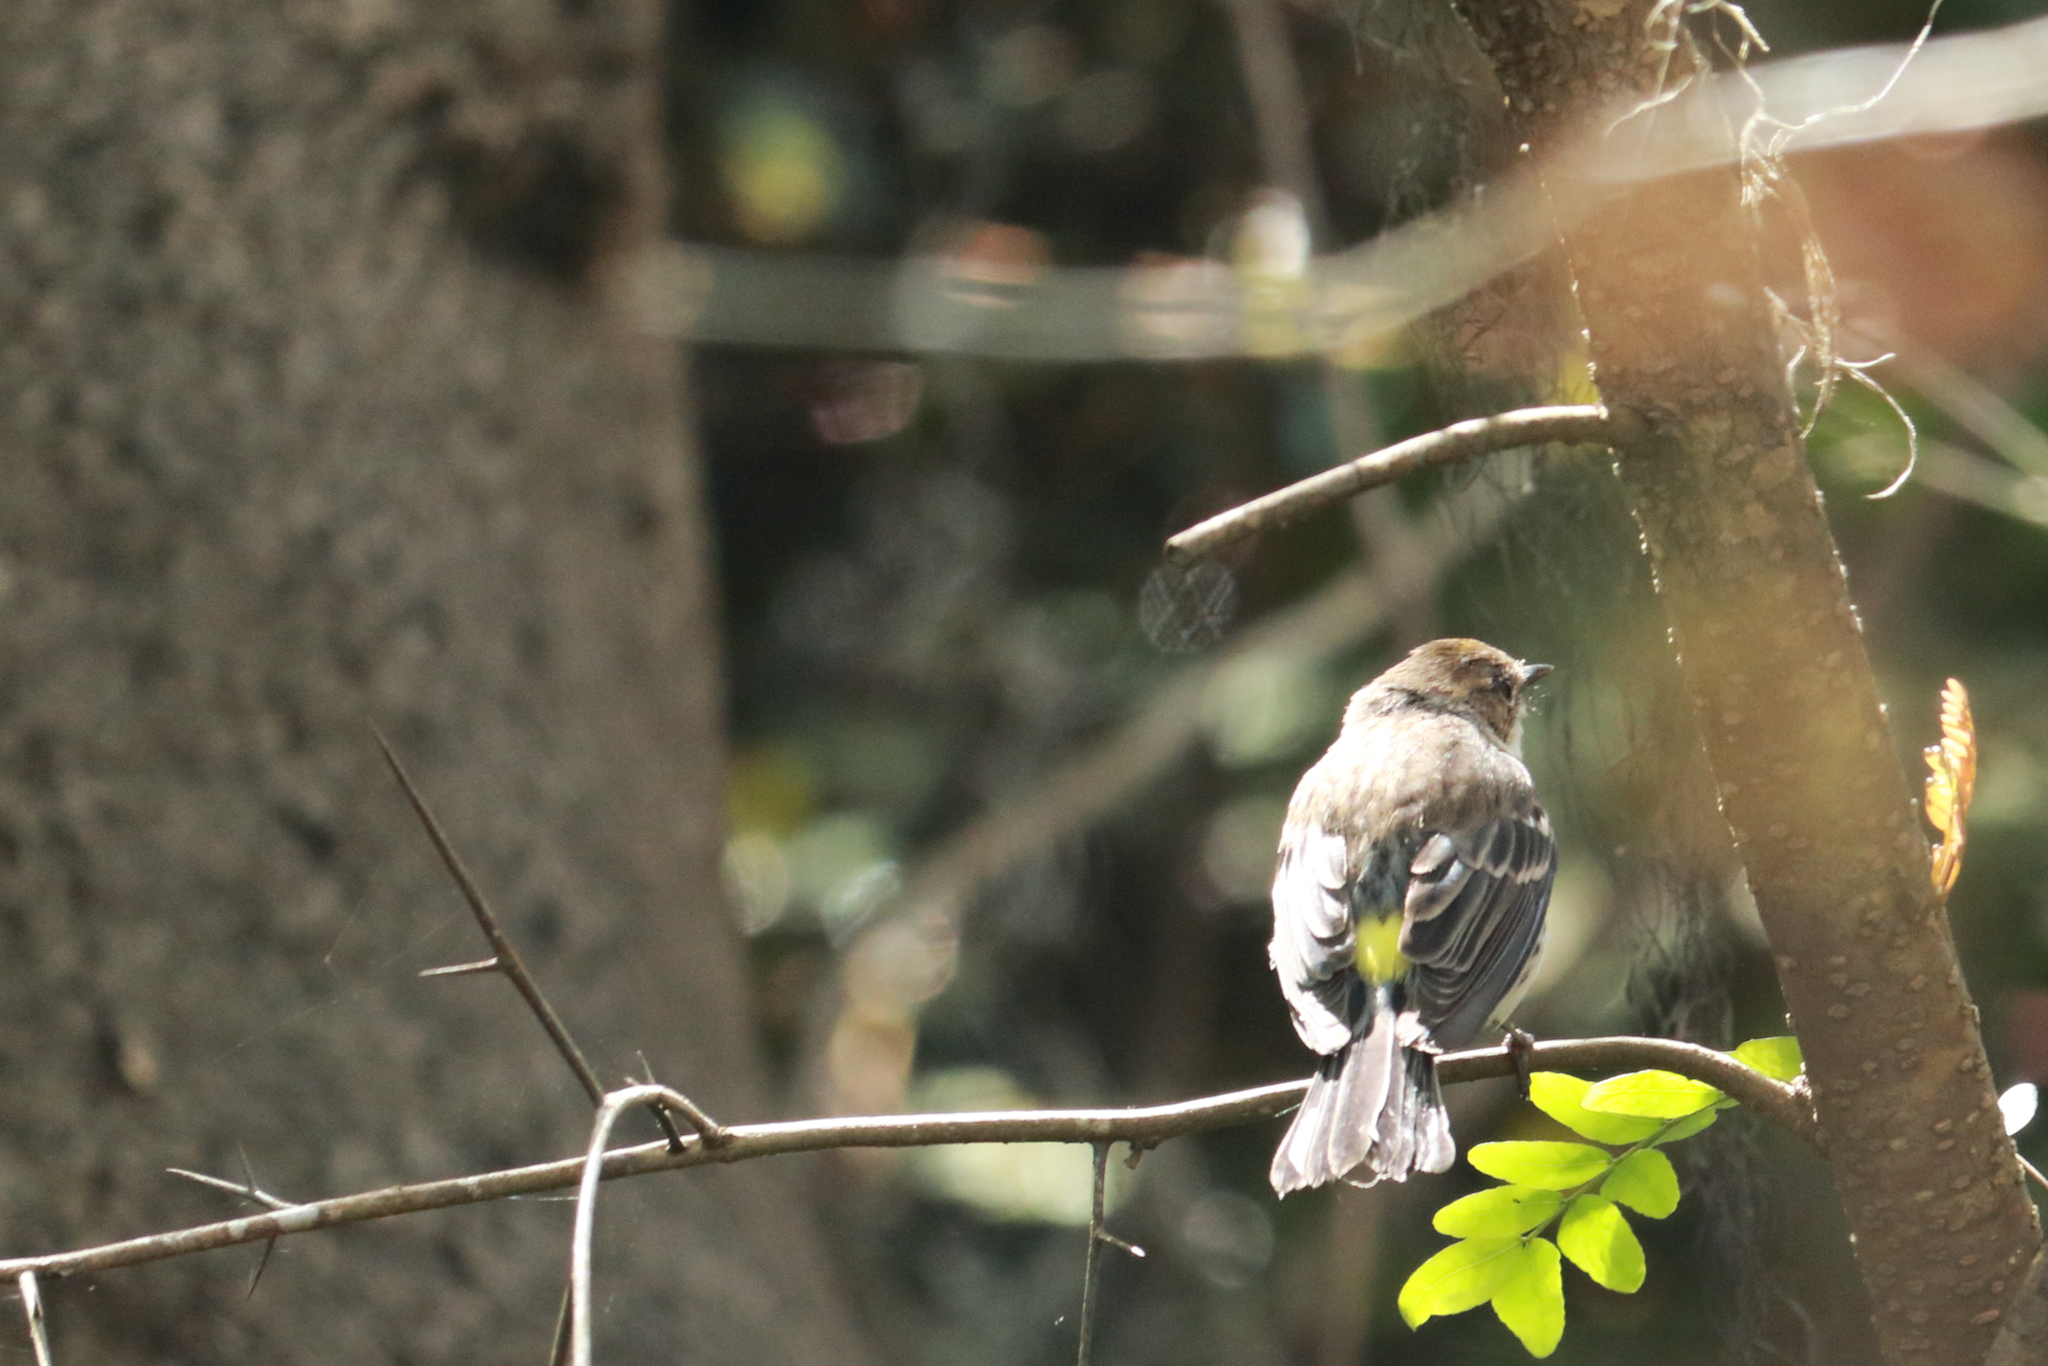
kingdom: Animalia
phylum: Chordata
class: Aves
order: Passeriformes
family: Parulidae
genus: Setophaga
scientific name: Setophaga coronata
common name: Myrtle warbler
